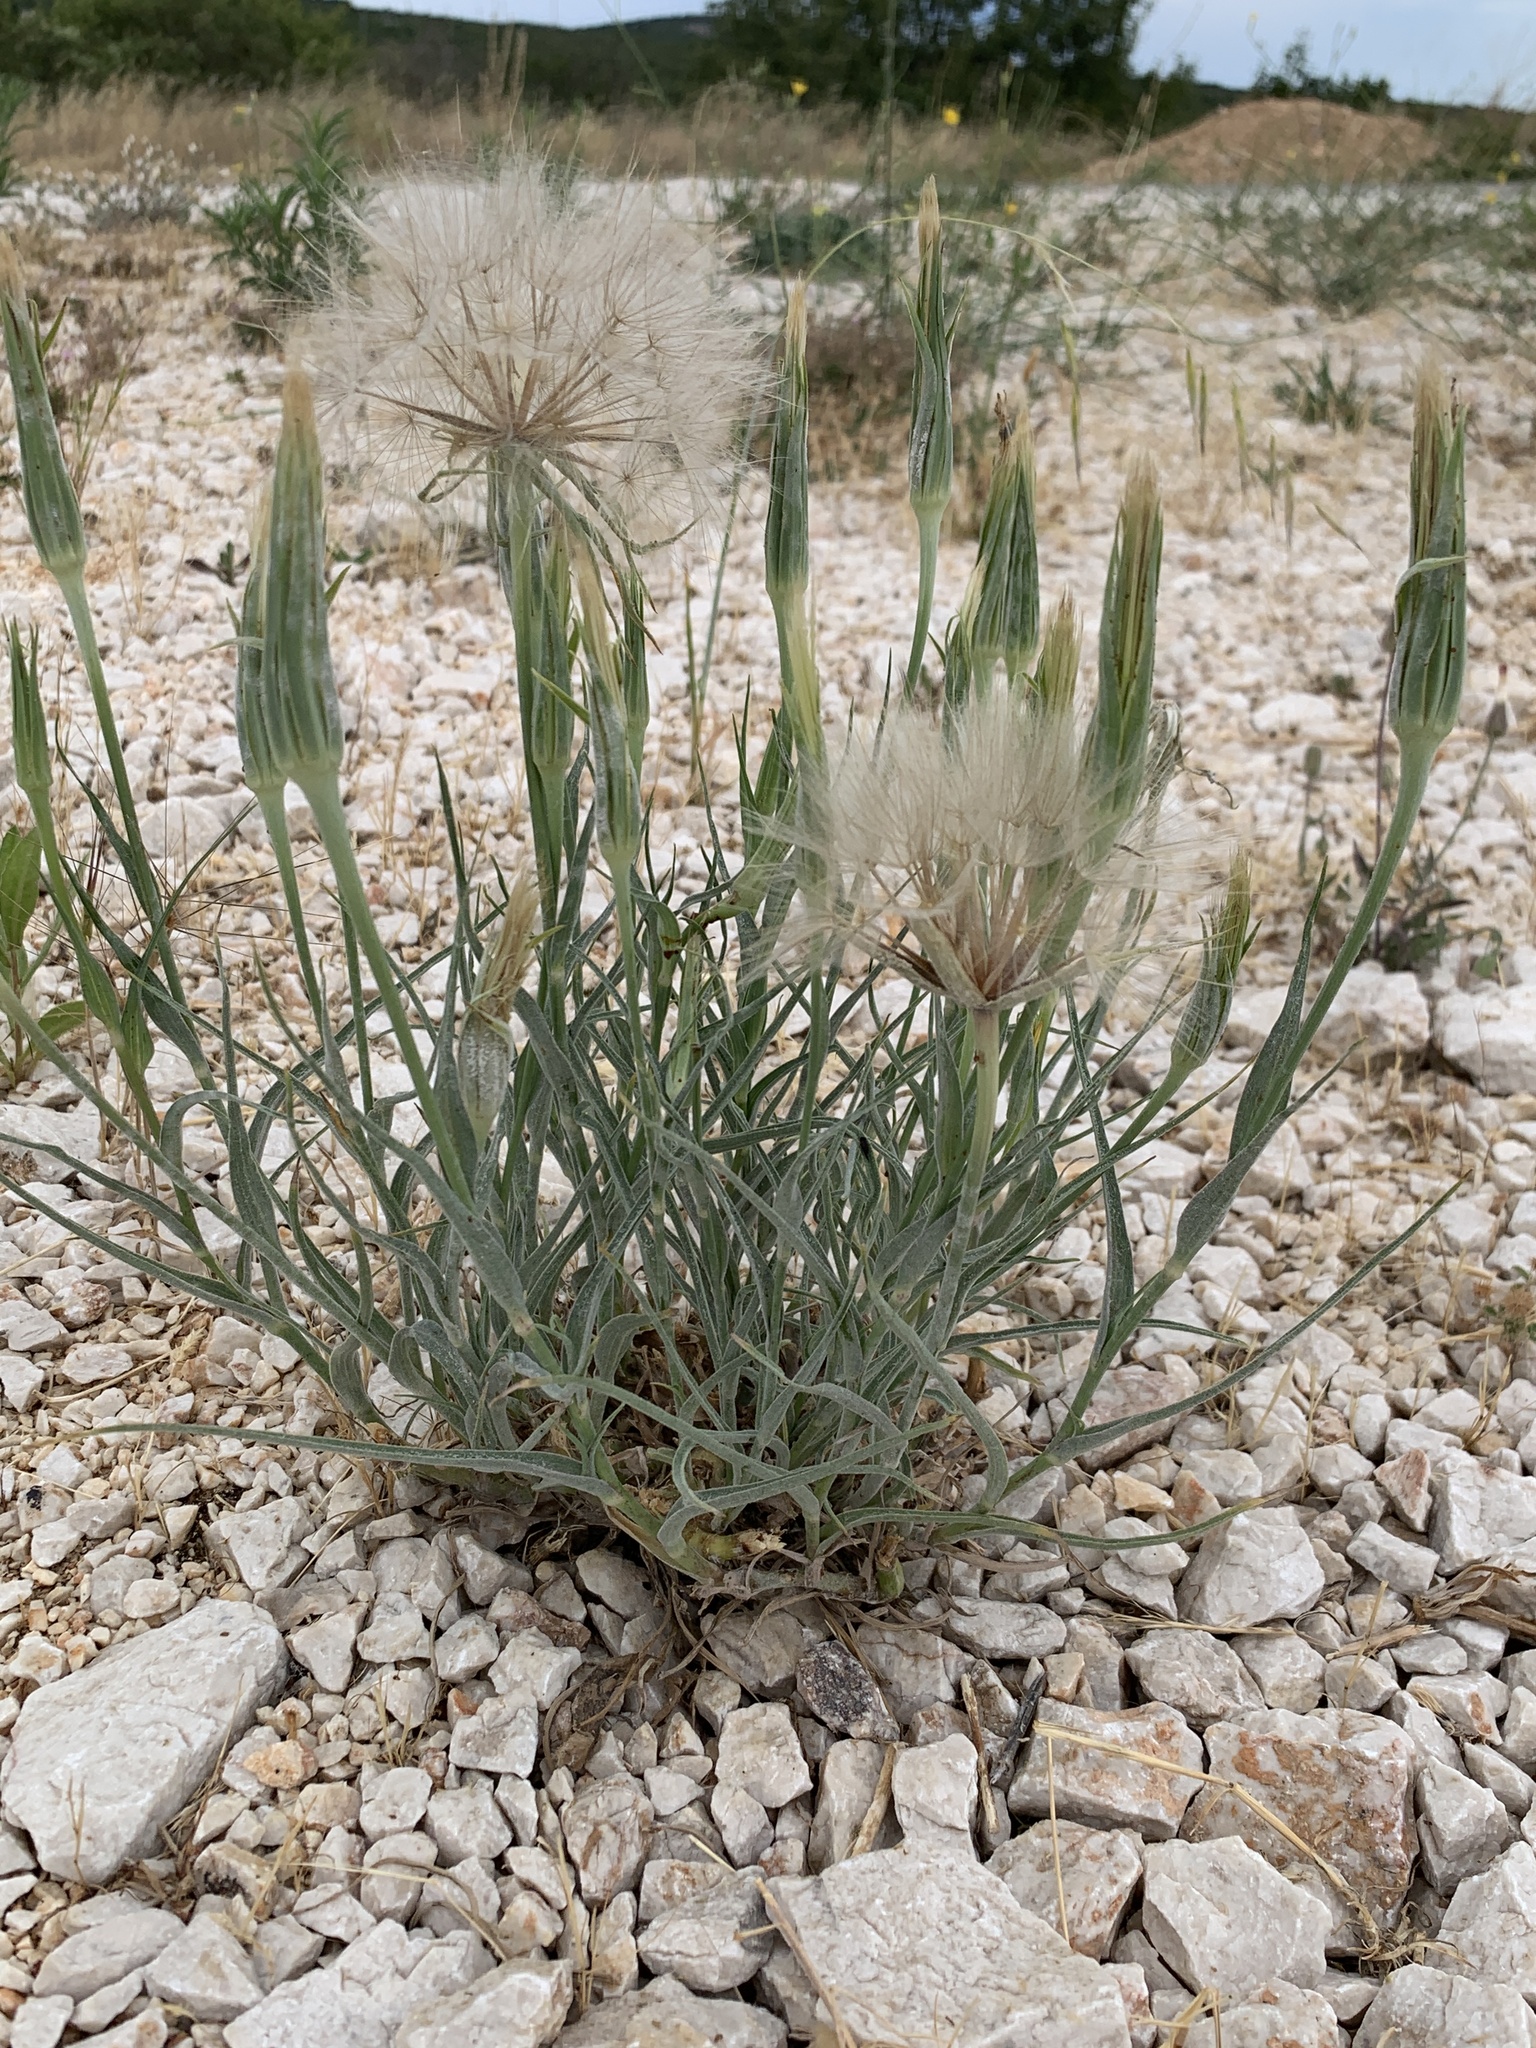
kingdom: Plantae
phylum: Tracheophyta
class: Magnoliopsida
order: Asterales
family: Asteraceae
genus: Tragopogon
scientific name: Tragopogon porrifolius
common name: Salsify
